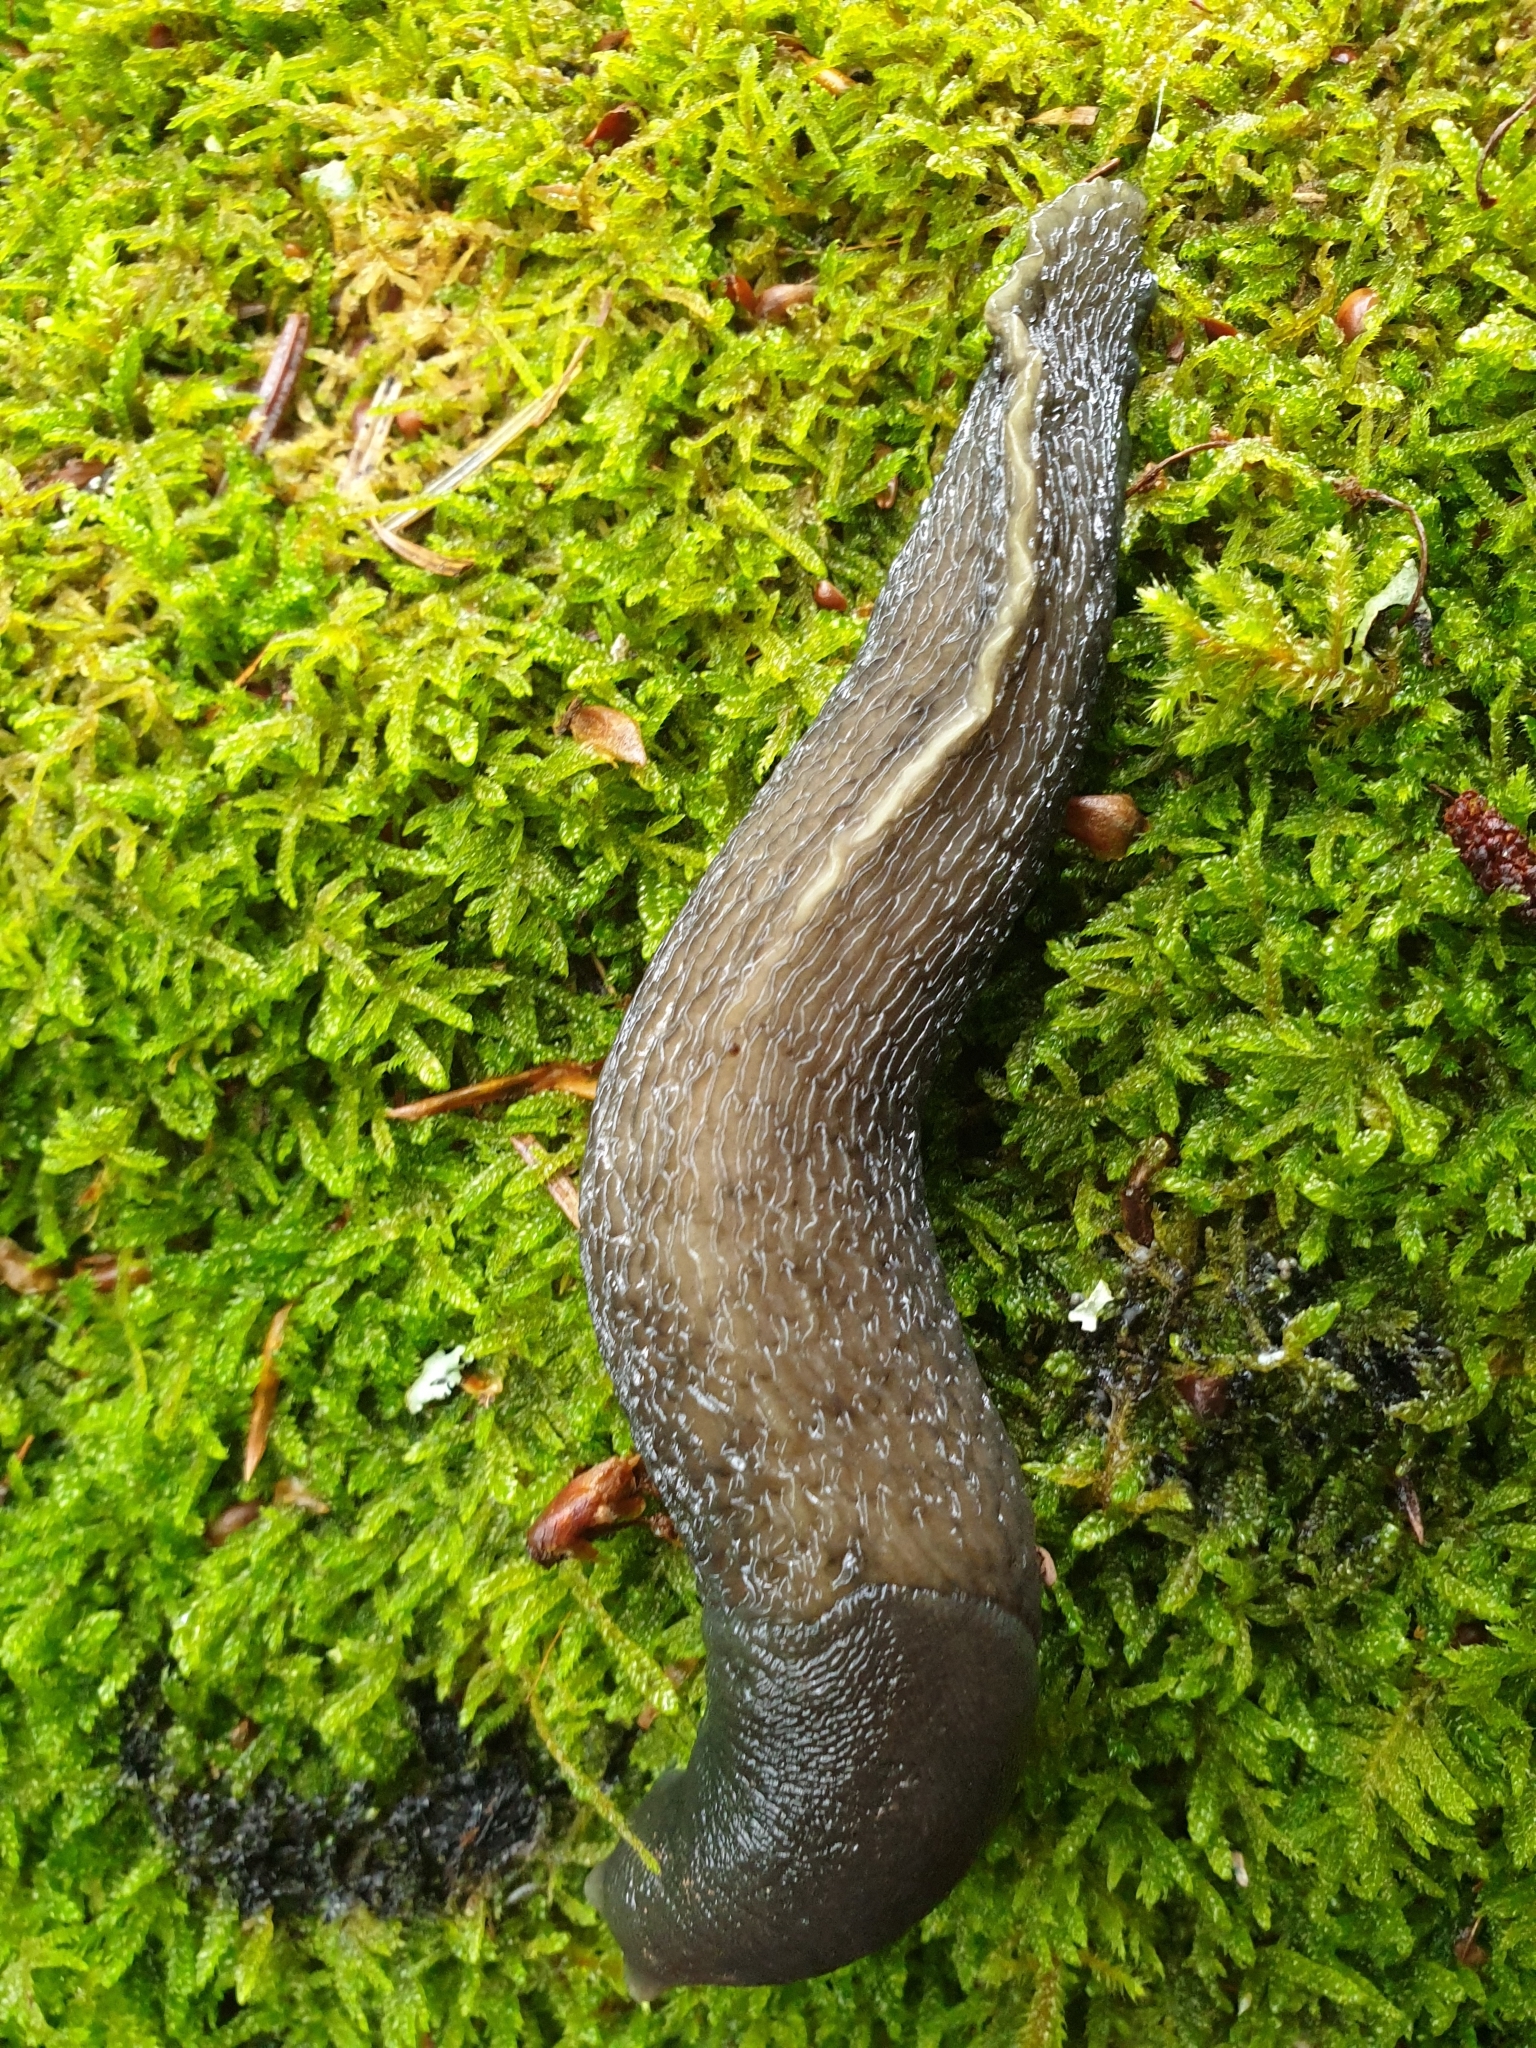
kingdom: Animalia
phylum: Mollusca
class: Gastropoda
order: Stylommatophora
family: Limacidae
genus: Limax
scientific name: Limax cinereoniger
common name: Ash-black slug
